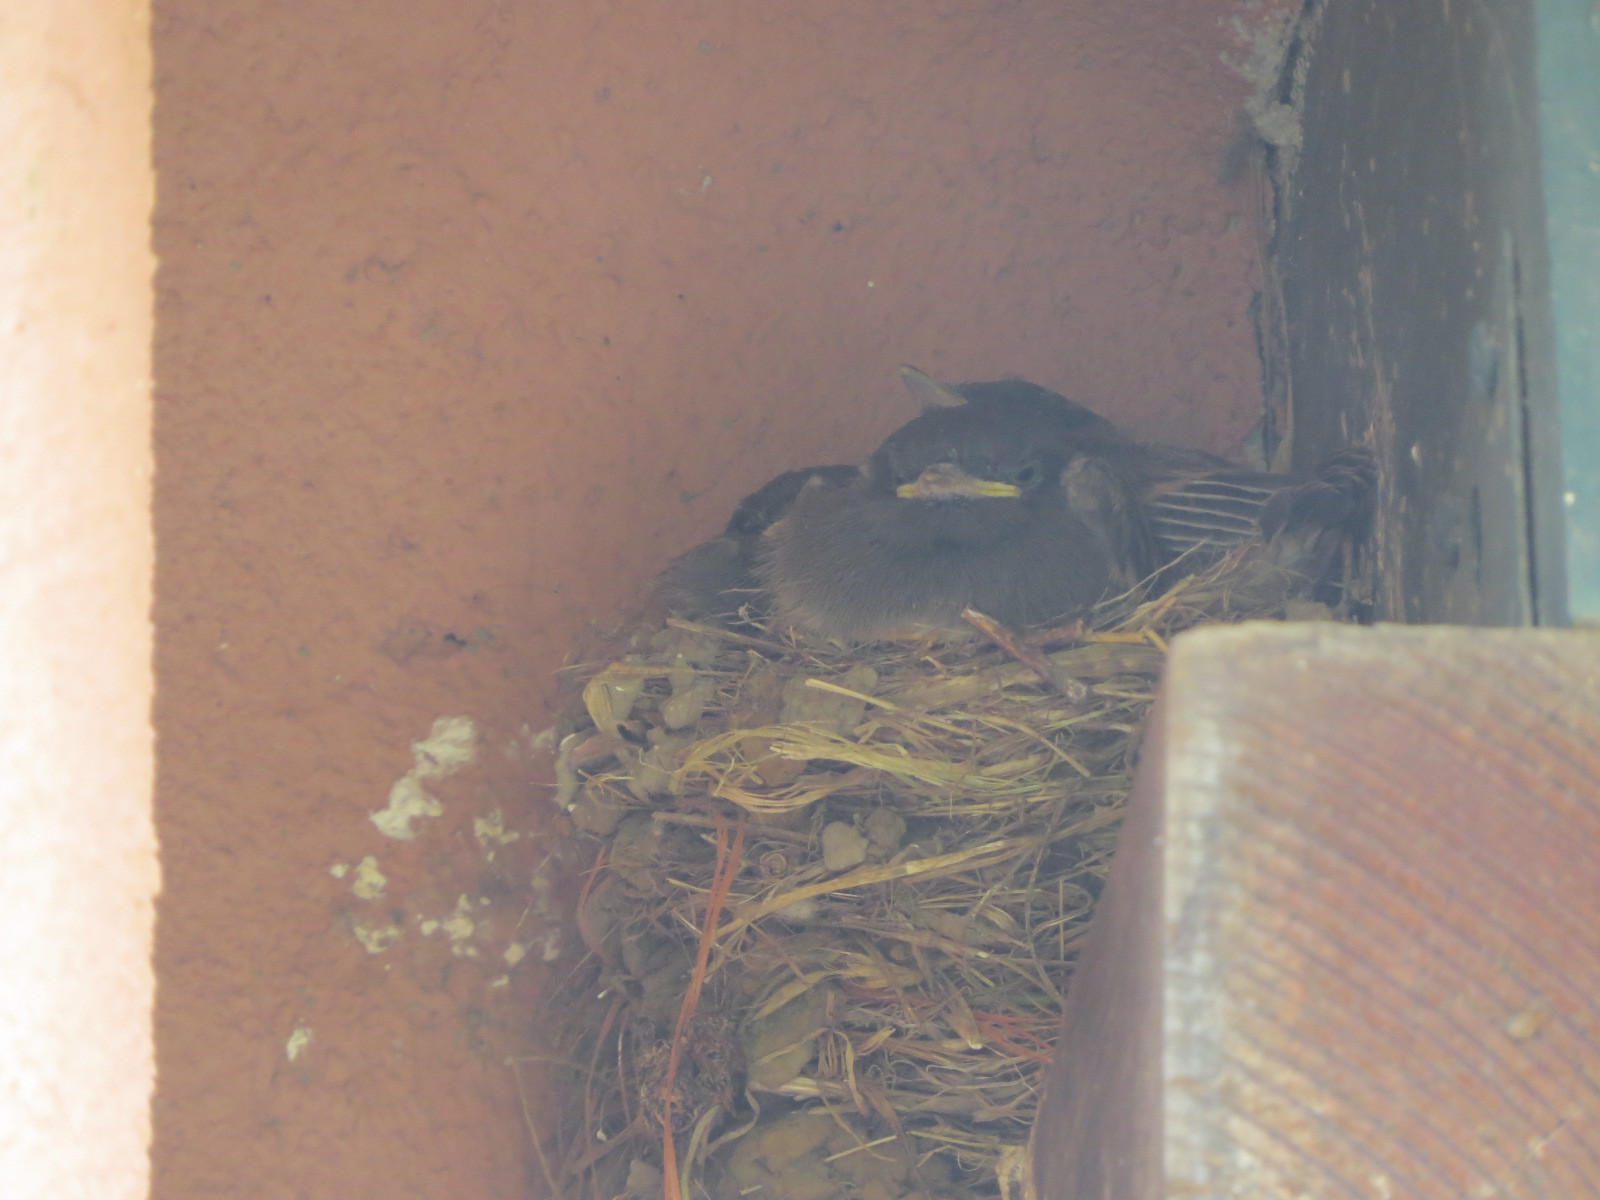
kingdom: Animalia
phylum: Chordata
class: Aves
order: Passeriformes
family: Tyrannidae
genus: Sayornis
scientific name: Sayornis nigricans
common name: Black phoebe
